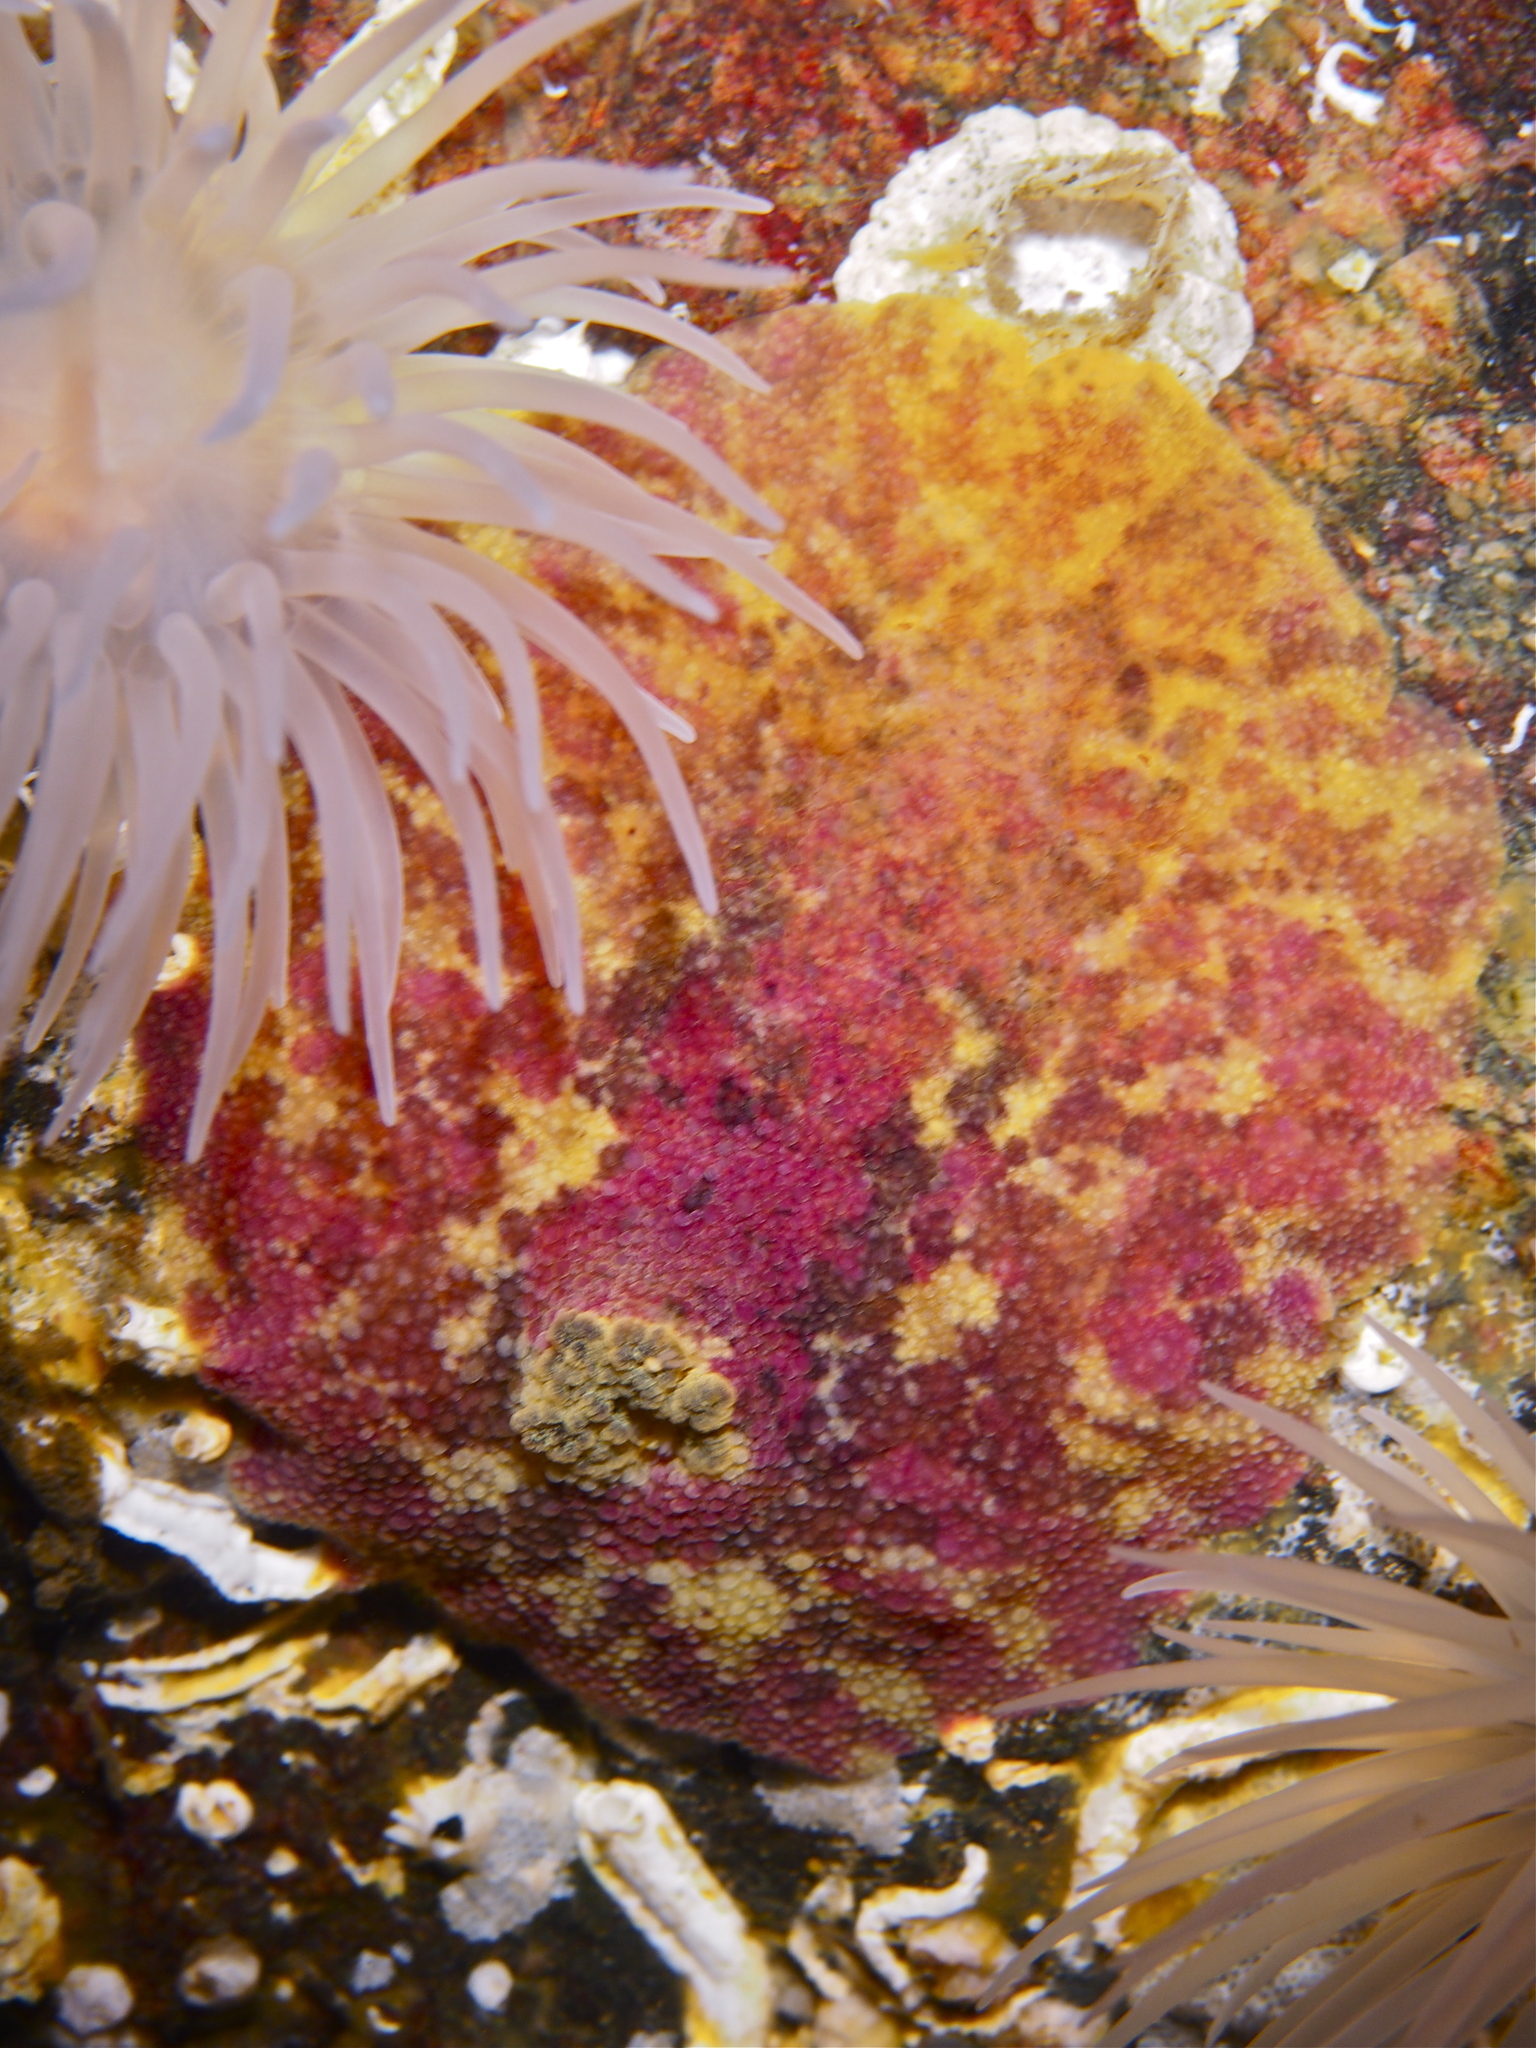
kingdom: Animalia
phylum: Mollusca
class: Gastropoda
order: Nudibranchia
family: Dorididae
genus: Doris
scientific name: Doris pseudoargus
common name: Sea lemon
